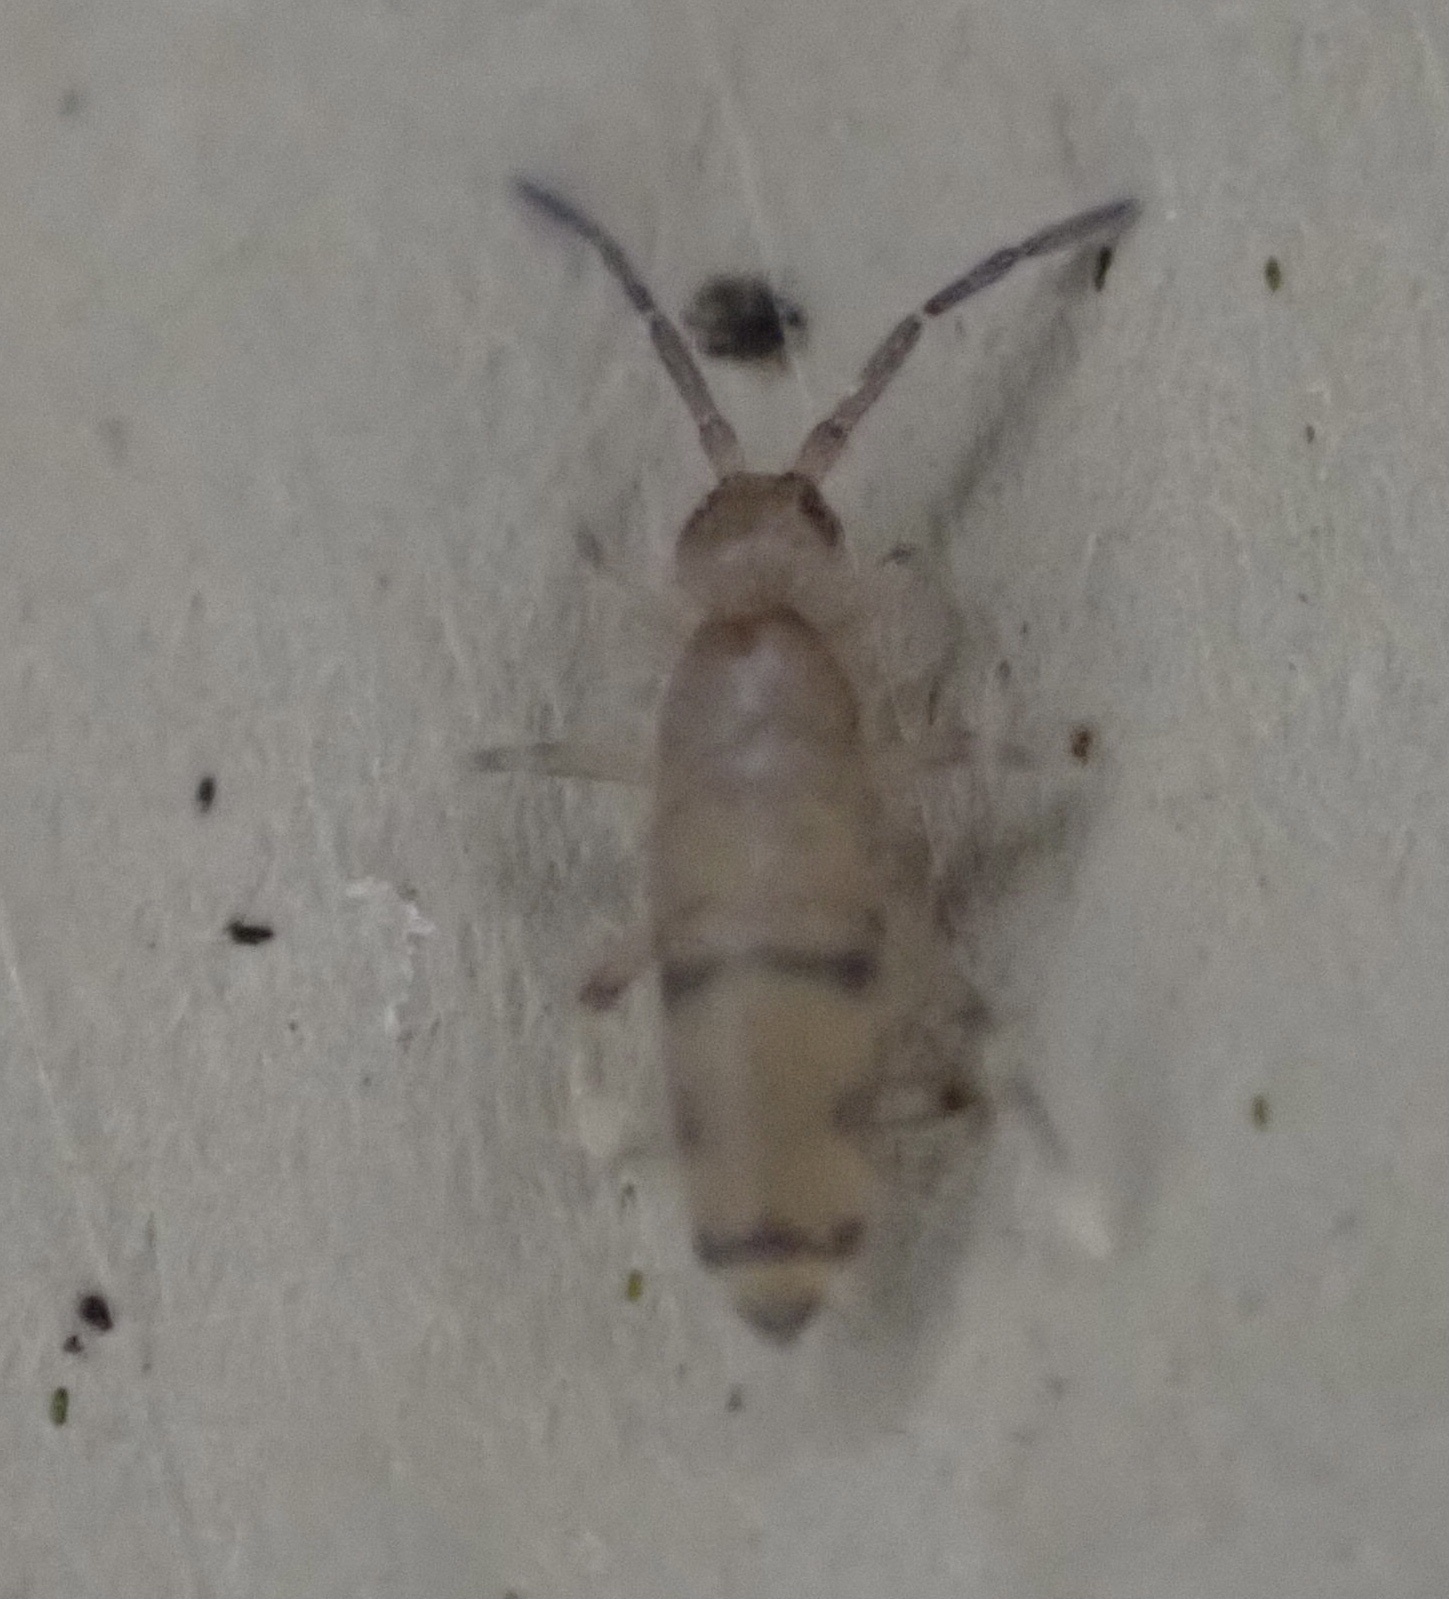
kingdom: Animalia
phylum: Arthropoda
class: Collembola
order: Entomobryomorpha
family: Entomobryidae
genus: Willowsia
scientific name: Willowsia nigromaculata
